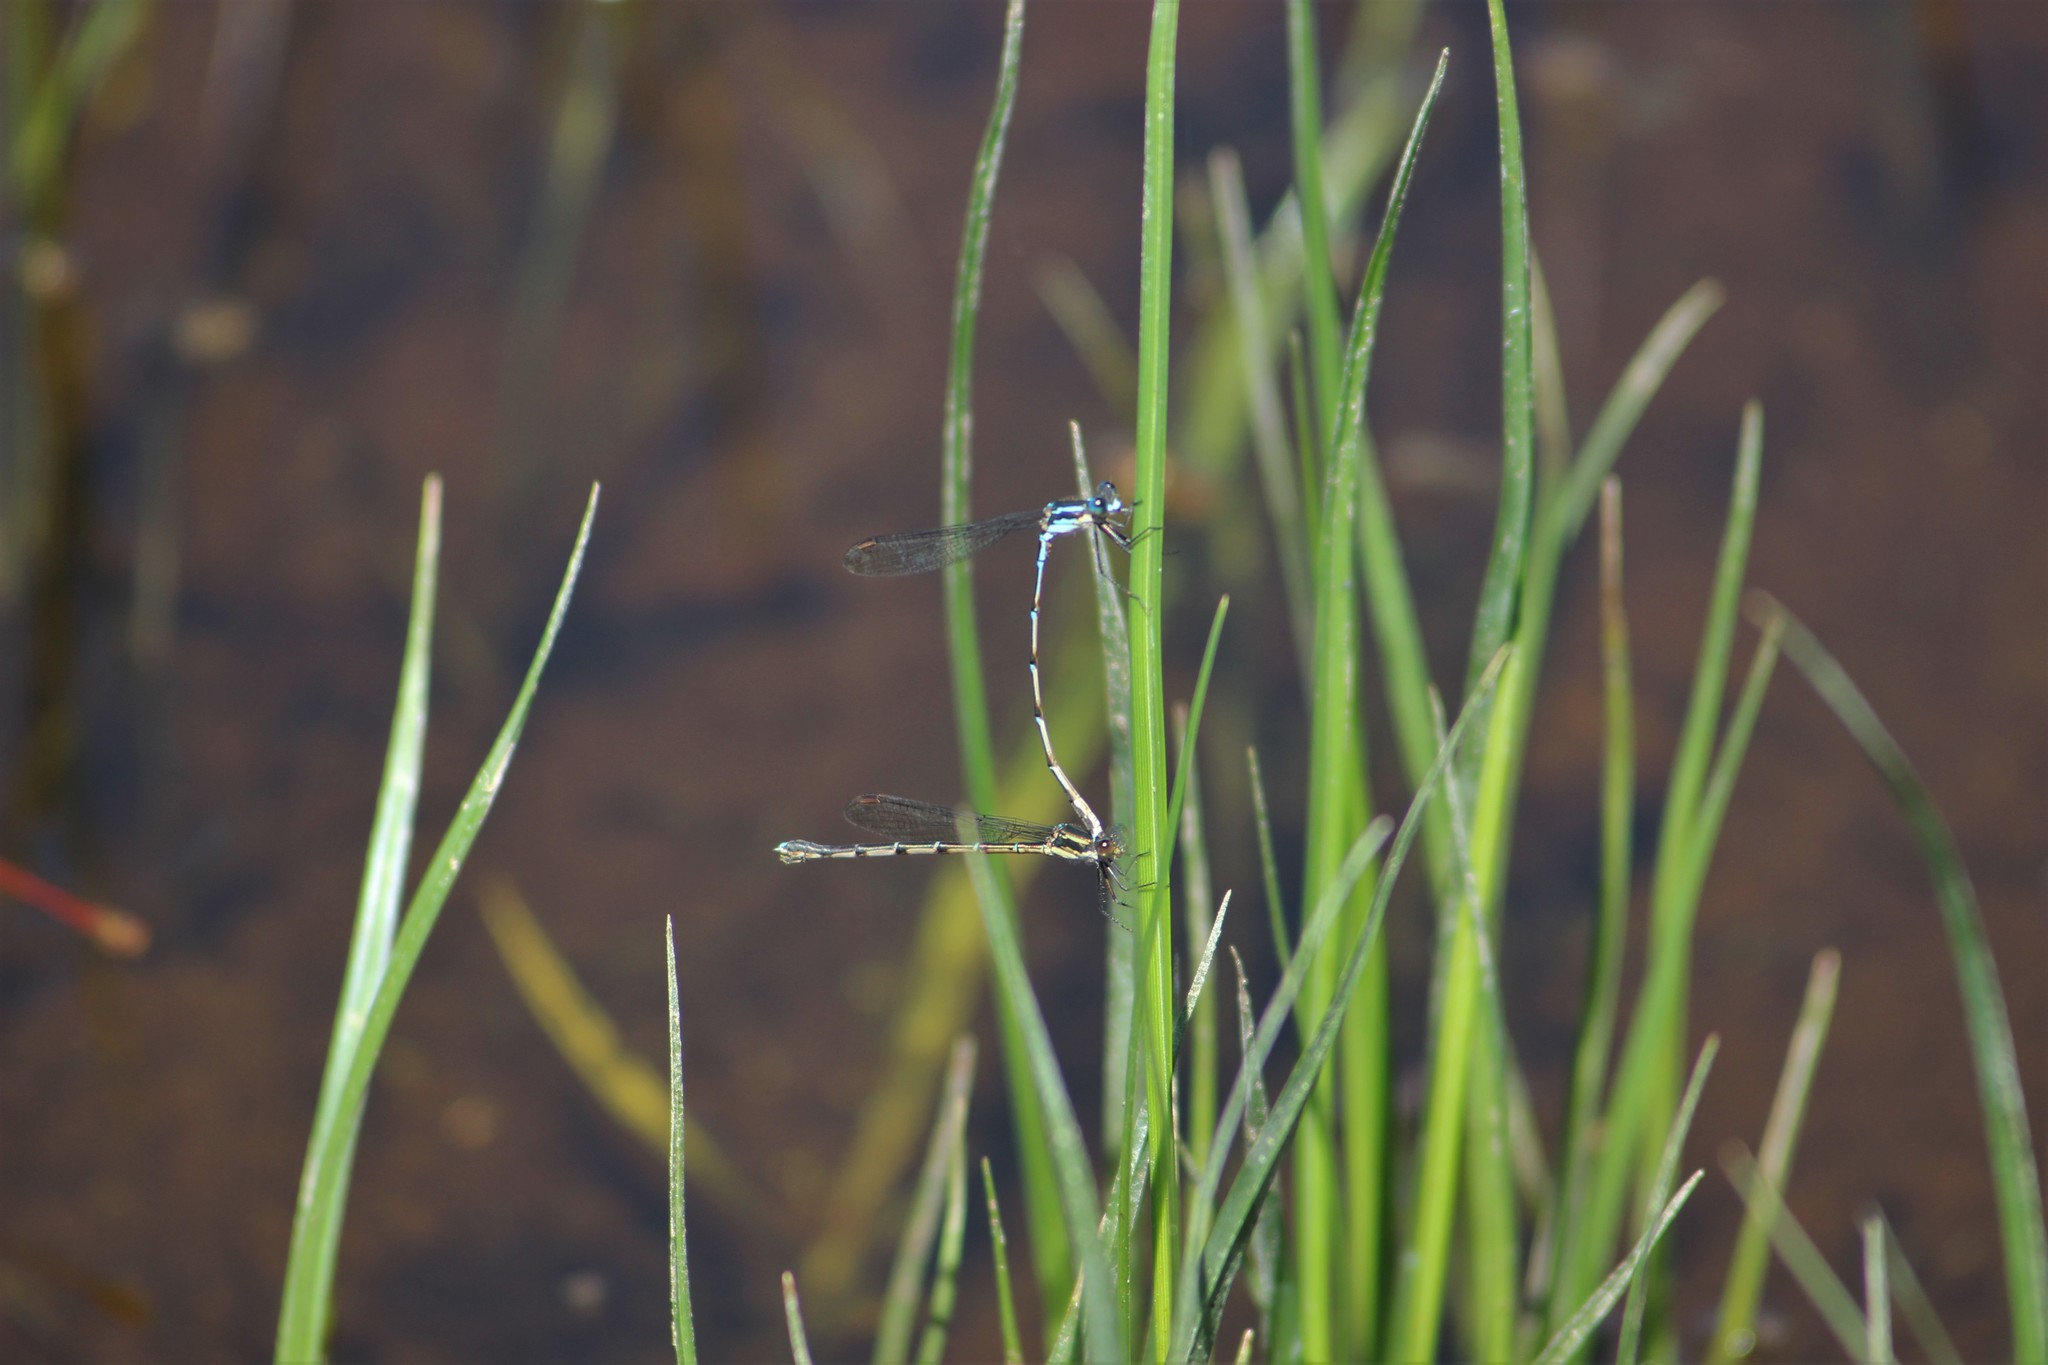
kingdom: Animalia
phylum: Arthropoda
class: Insecta
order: Odonata
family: Lestidae
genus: Austrolestes
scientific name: Austrolestes colensonis
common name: Blue damselfly
